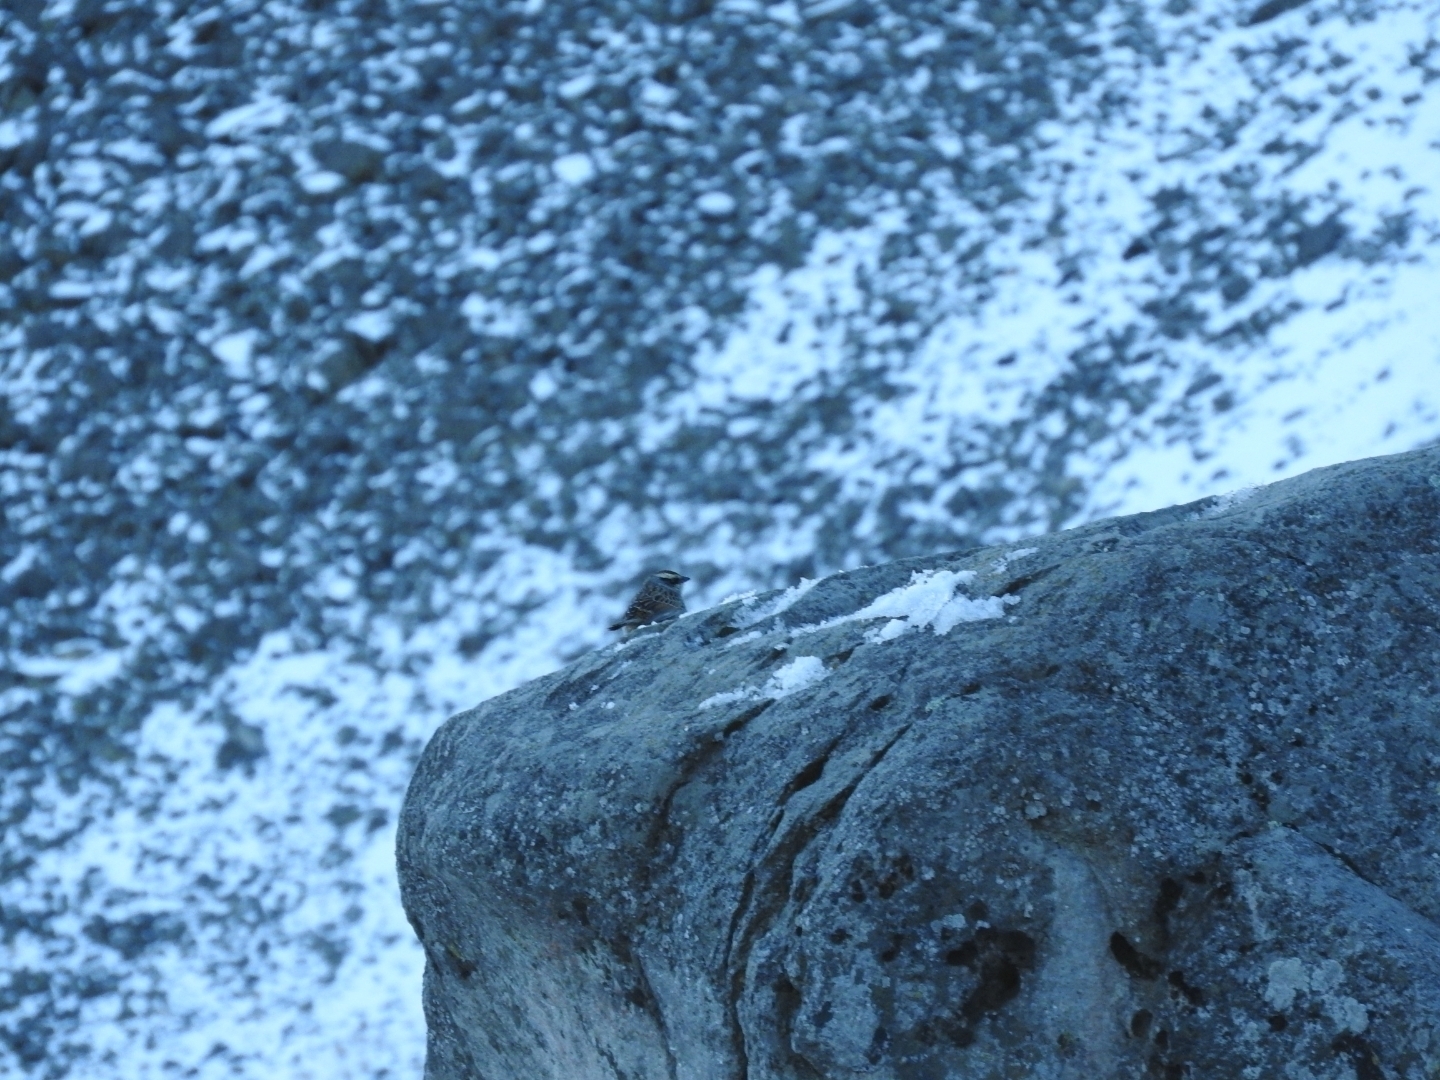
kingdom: Animalia
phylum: Chordata
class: Aves
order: Passeriformes
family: Passerellidae
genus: Oriturus
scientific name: Oriturus superciliosus
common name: Striped sparrow
